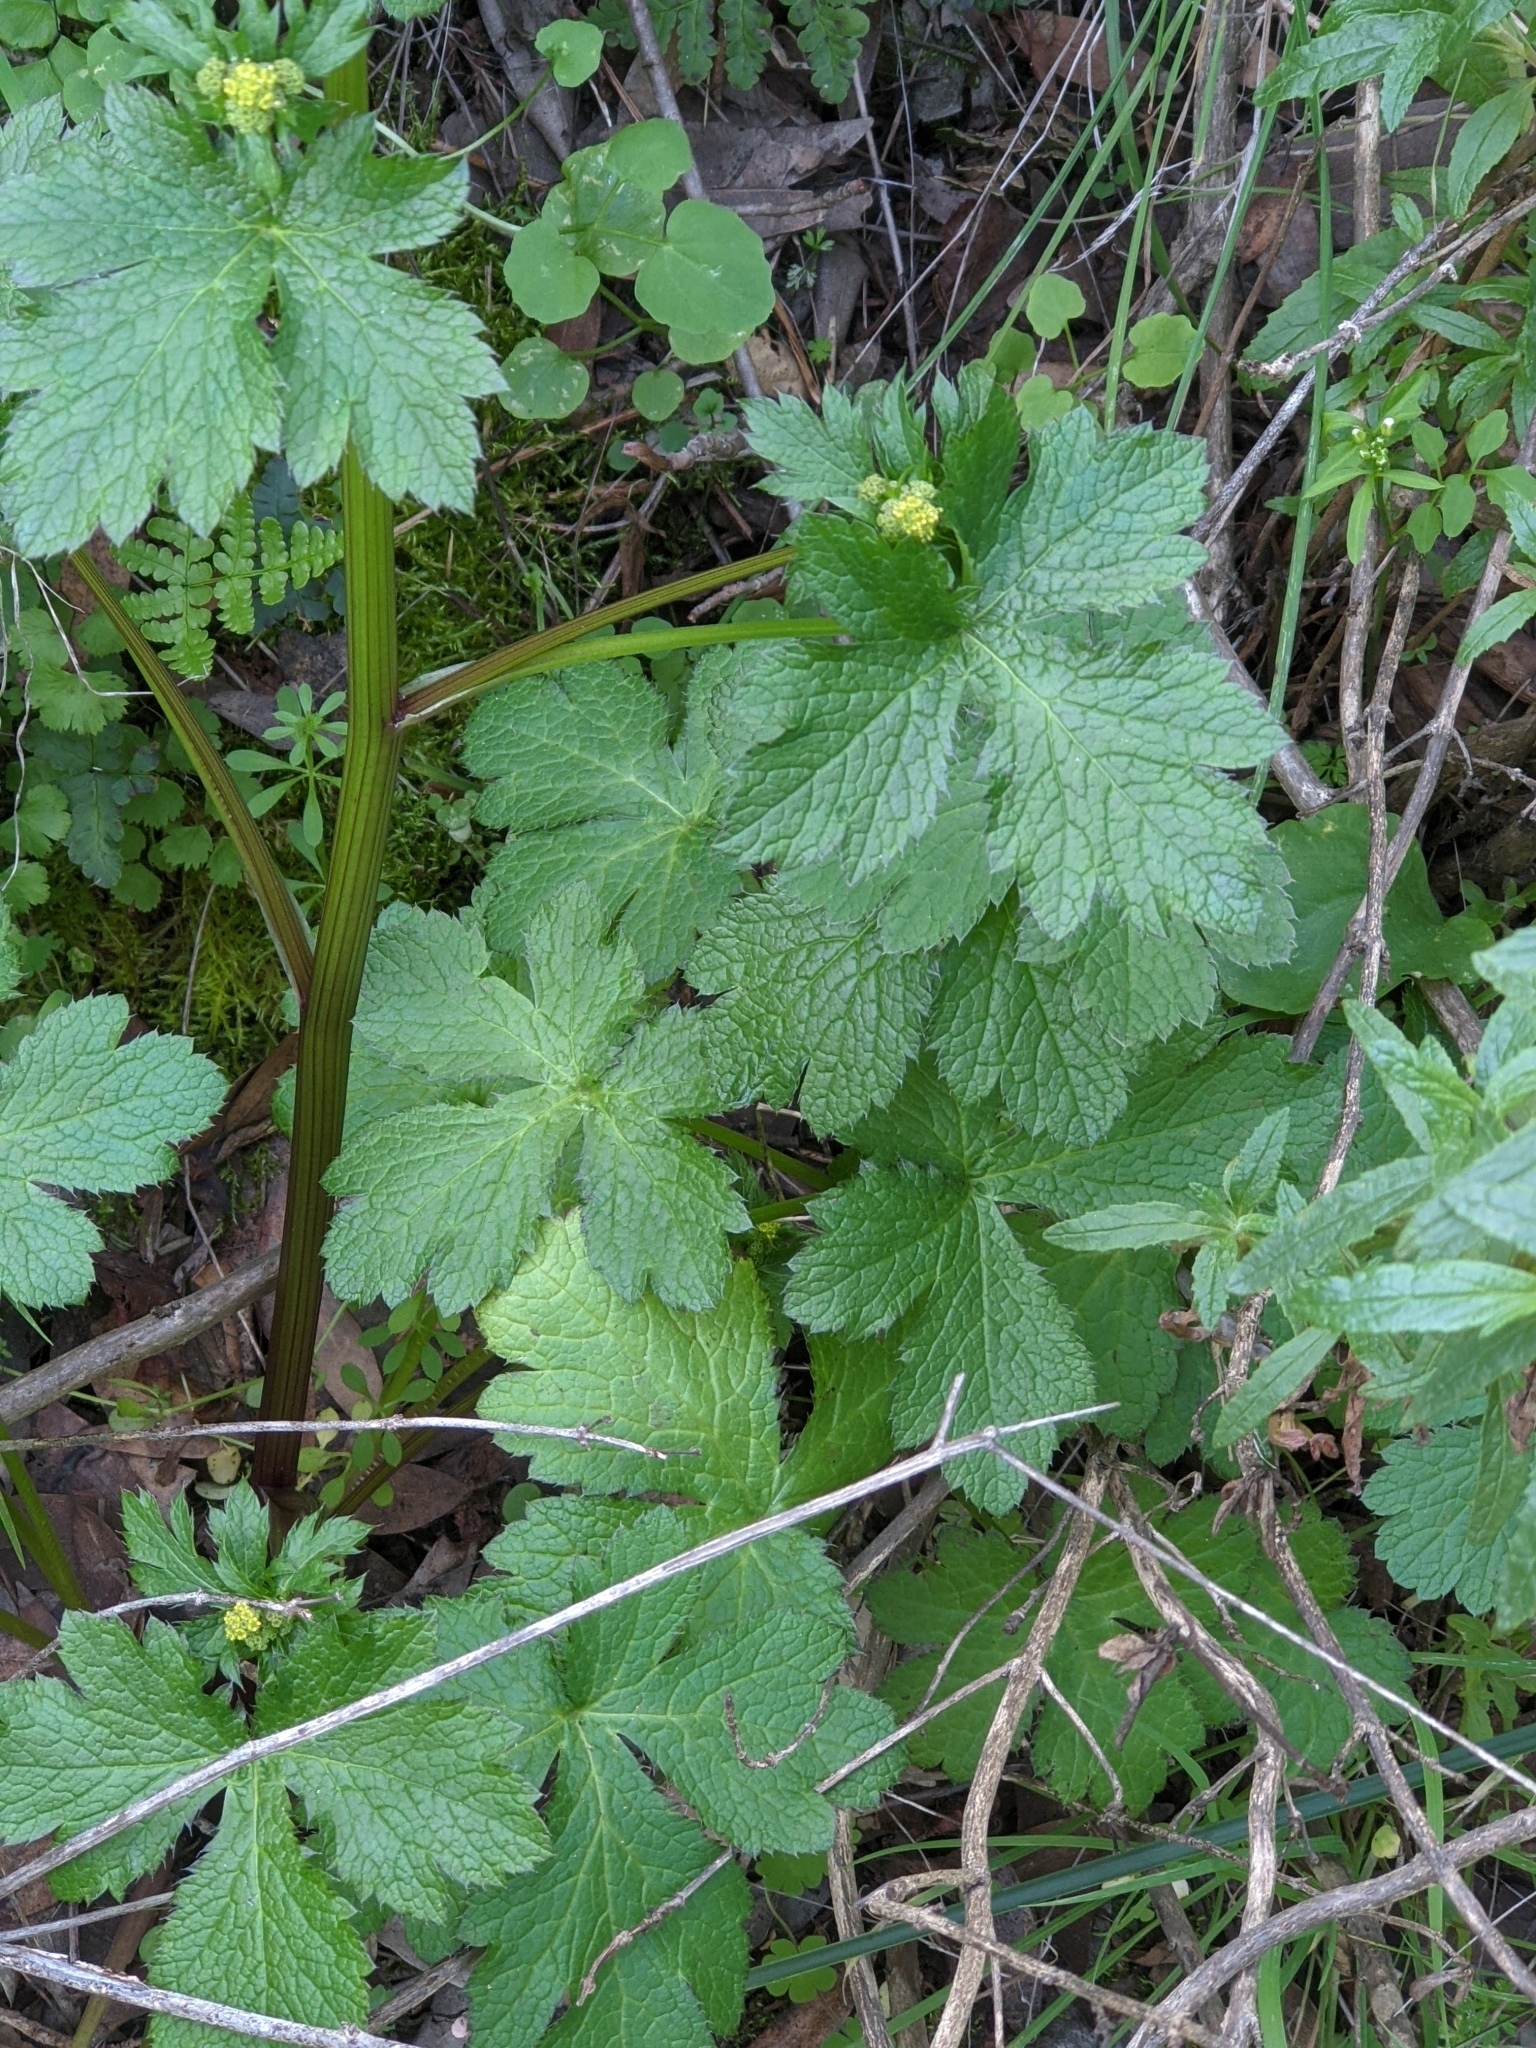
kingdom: Plantae
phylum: Tracheophyta
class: Magnoliopsida
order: Apiales
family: Apiaceae
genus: Sanicula
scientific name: Sanicula crassicaulis
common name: Western snakeroot
